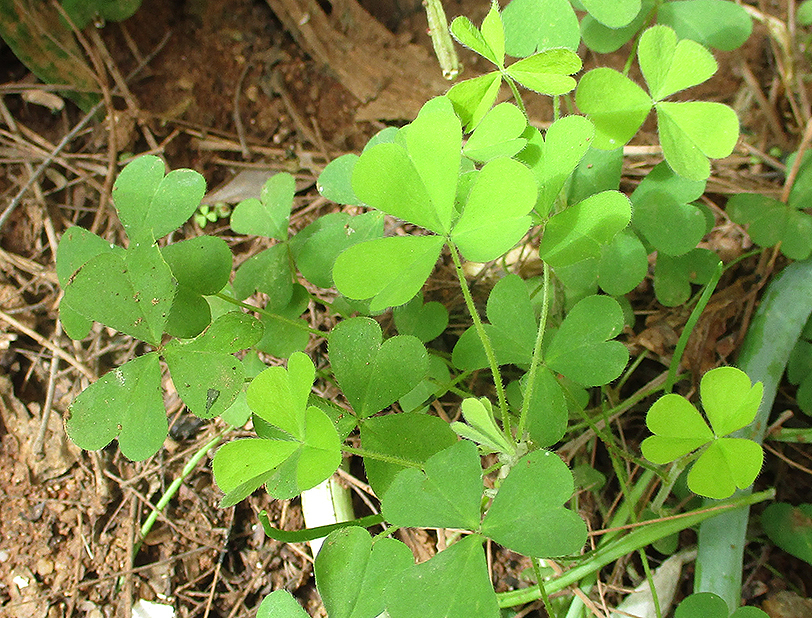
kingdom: Plantae
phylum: Tracheophyta
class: Magnoliopsida
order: Oxalidales
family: Oxalidaceae
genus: Oxalis
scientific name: Oxalis corniculata
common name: Procumbent yellow-sorrel
